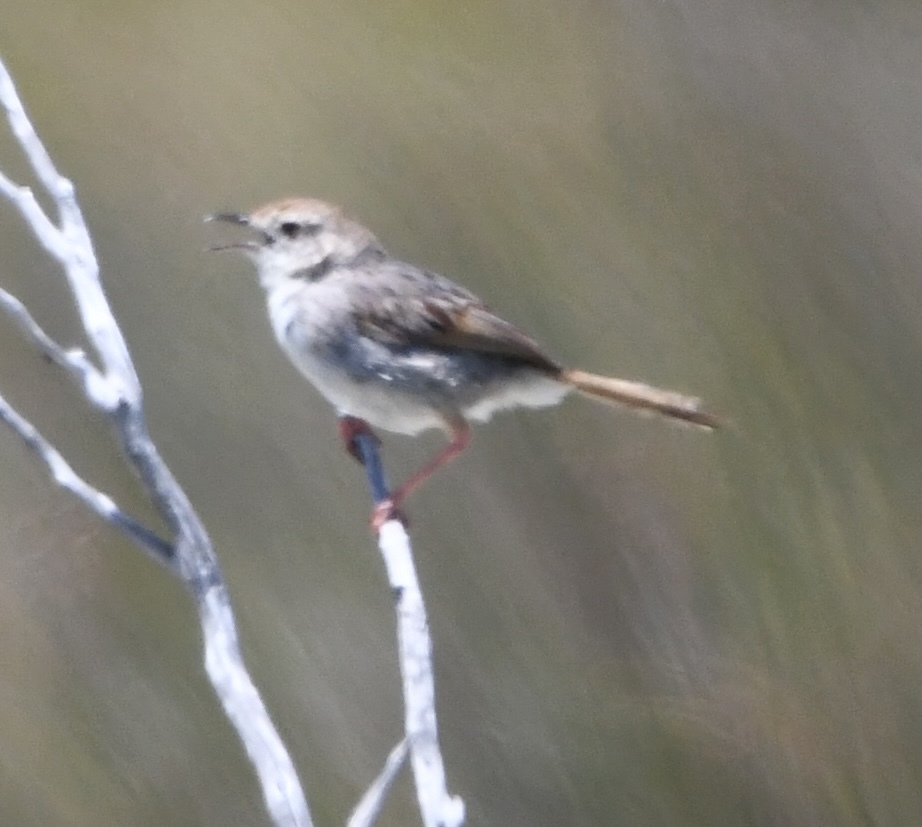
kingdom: Animalia
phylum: Chordata
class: Aves
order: Passeriformes
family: Cisticolidae
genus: Cisticola
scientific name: Cisticola subruficapilla
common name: Grey-backed cisticola
